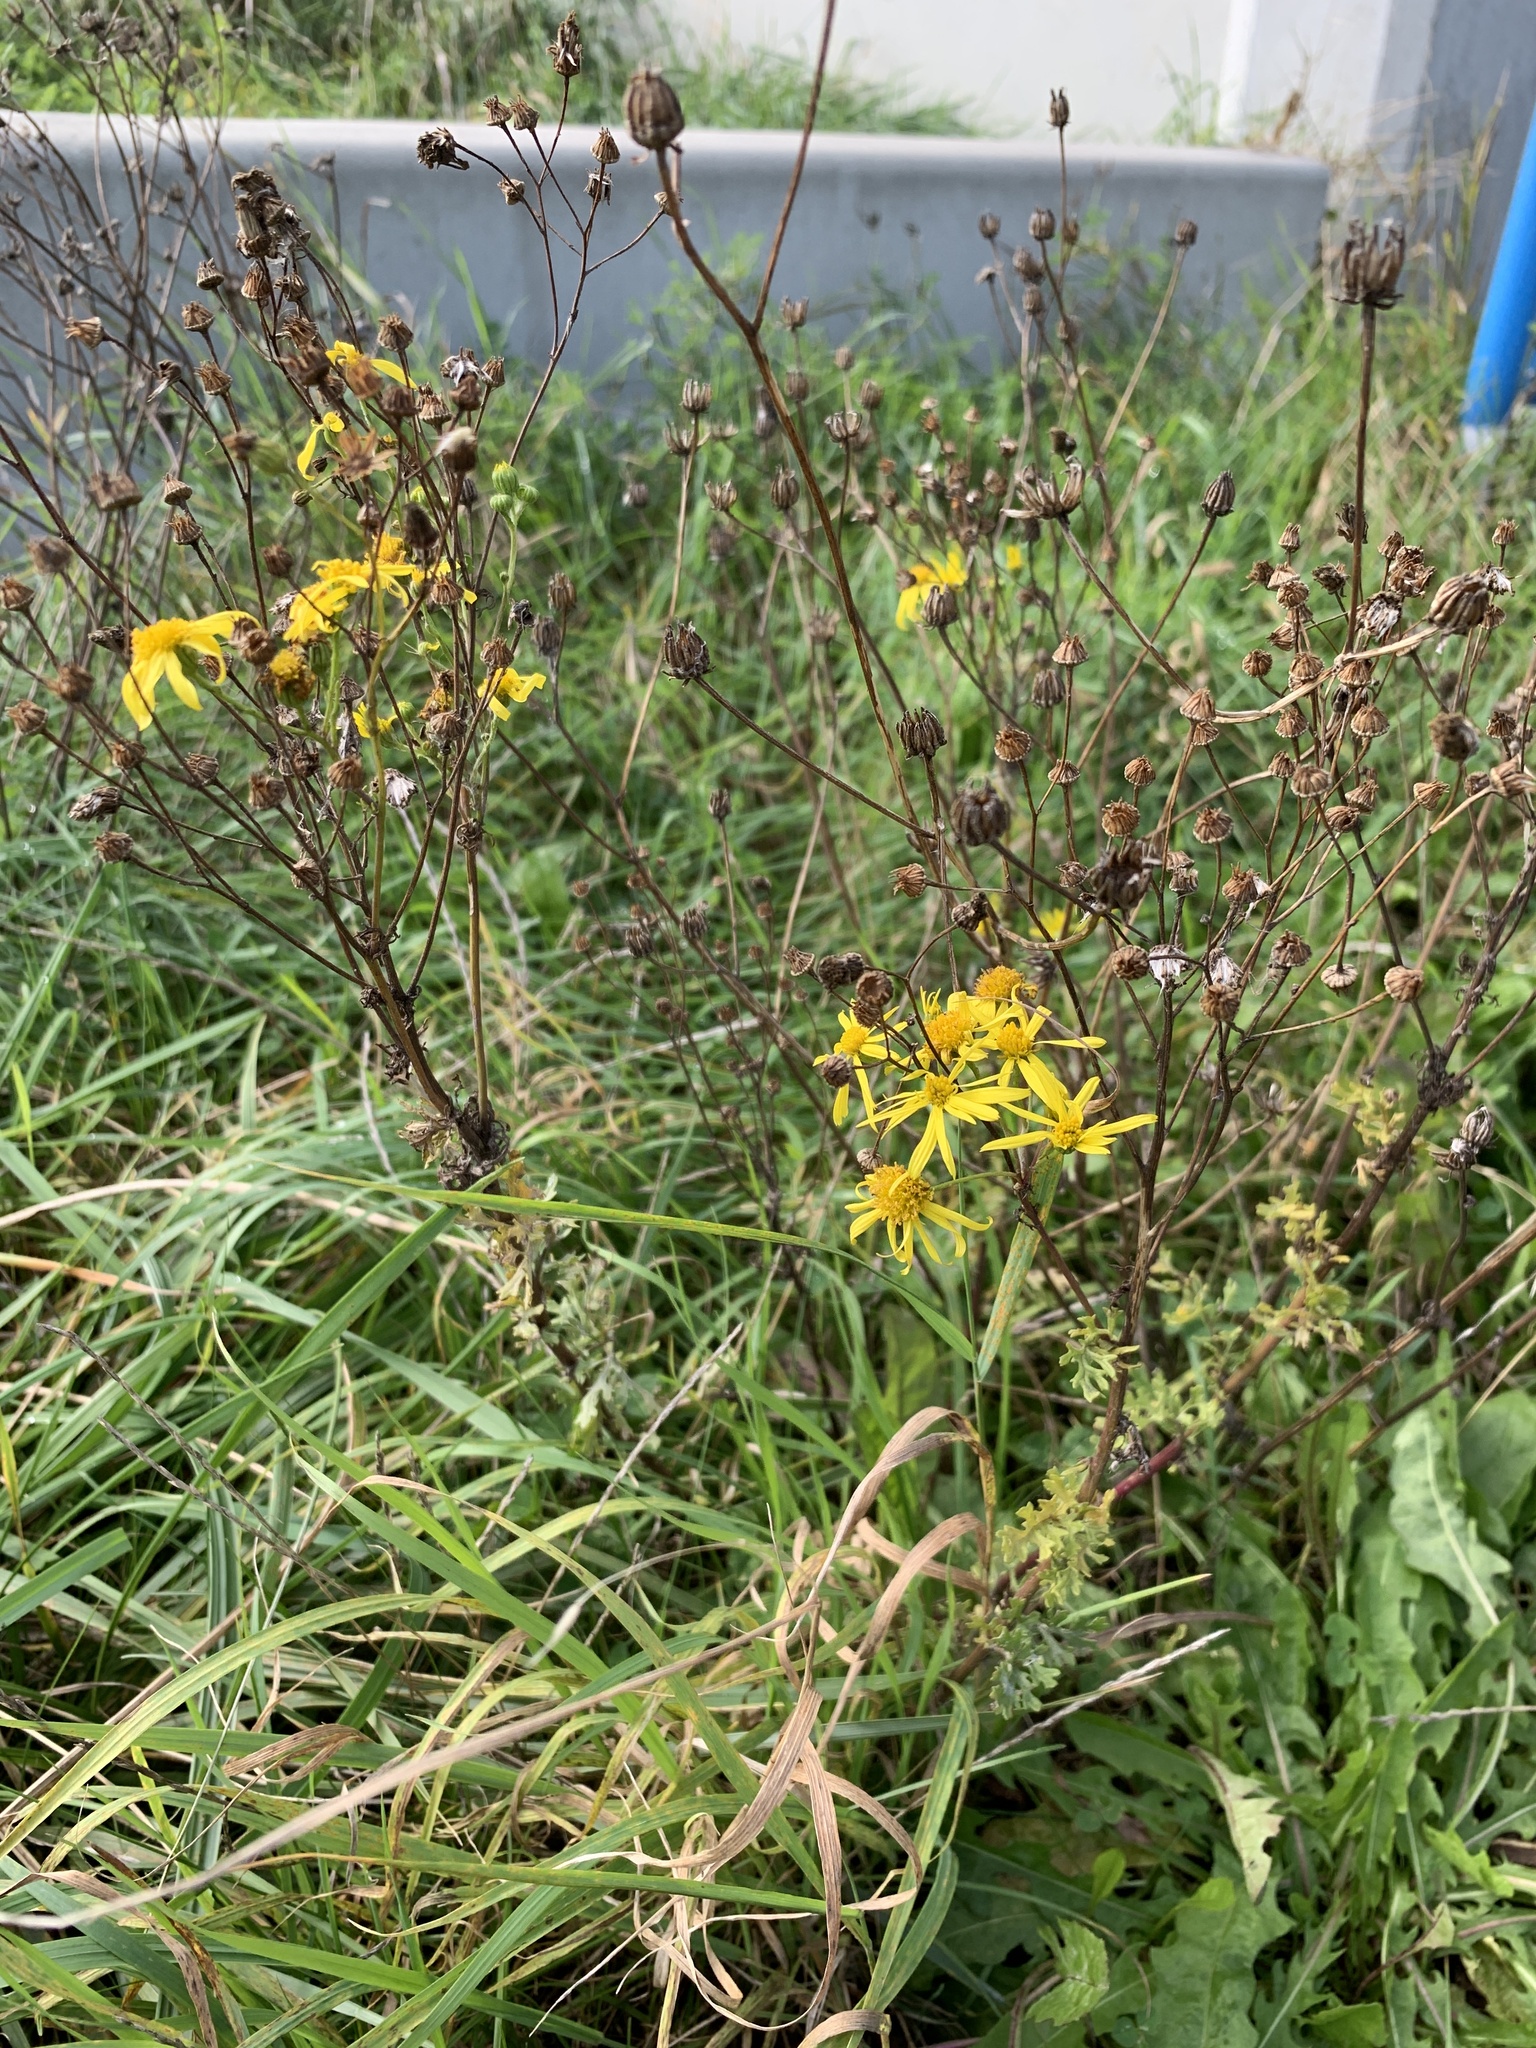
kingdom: Plantae
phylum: Tracheophyta
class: Magnoliopsida
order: Asterales
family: Asteraceae
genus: Jacobaea
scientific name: Jacobaea vulgaris
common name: Stinking willie
